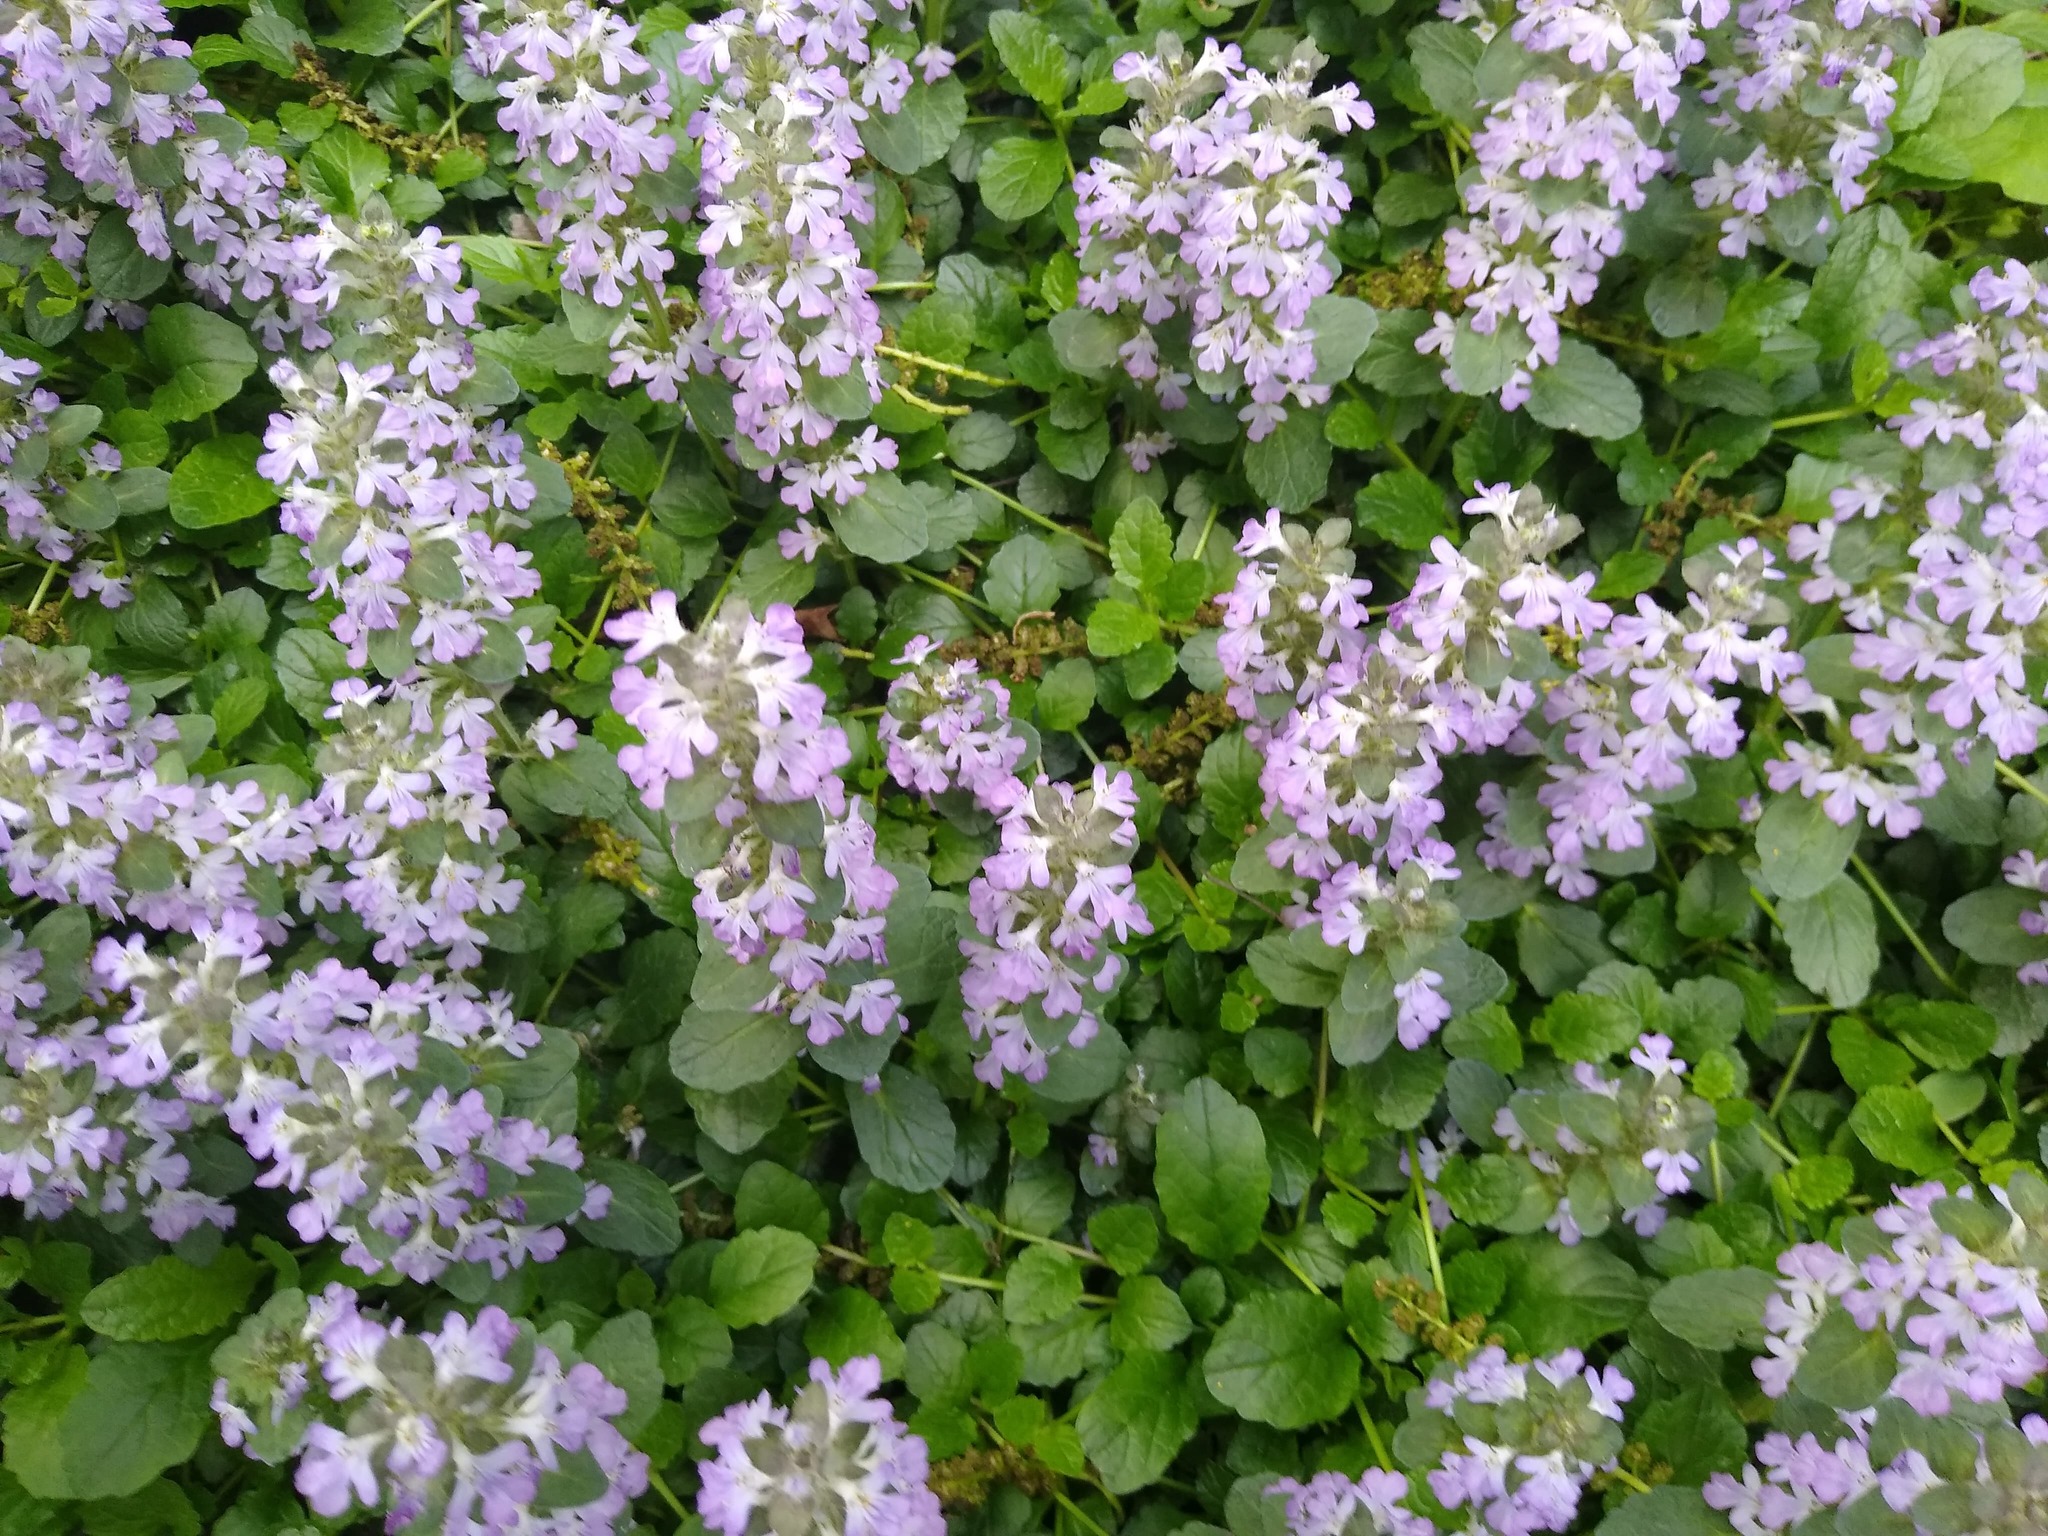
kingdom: Plantae
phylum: Tracheophyta
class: Magnoliopsida
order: Lamiales
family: Lamiaceae
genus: Ajuga
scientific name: Ajuga reptans
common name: Bugle
